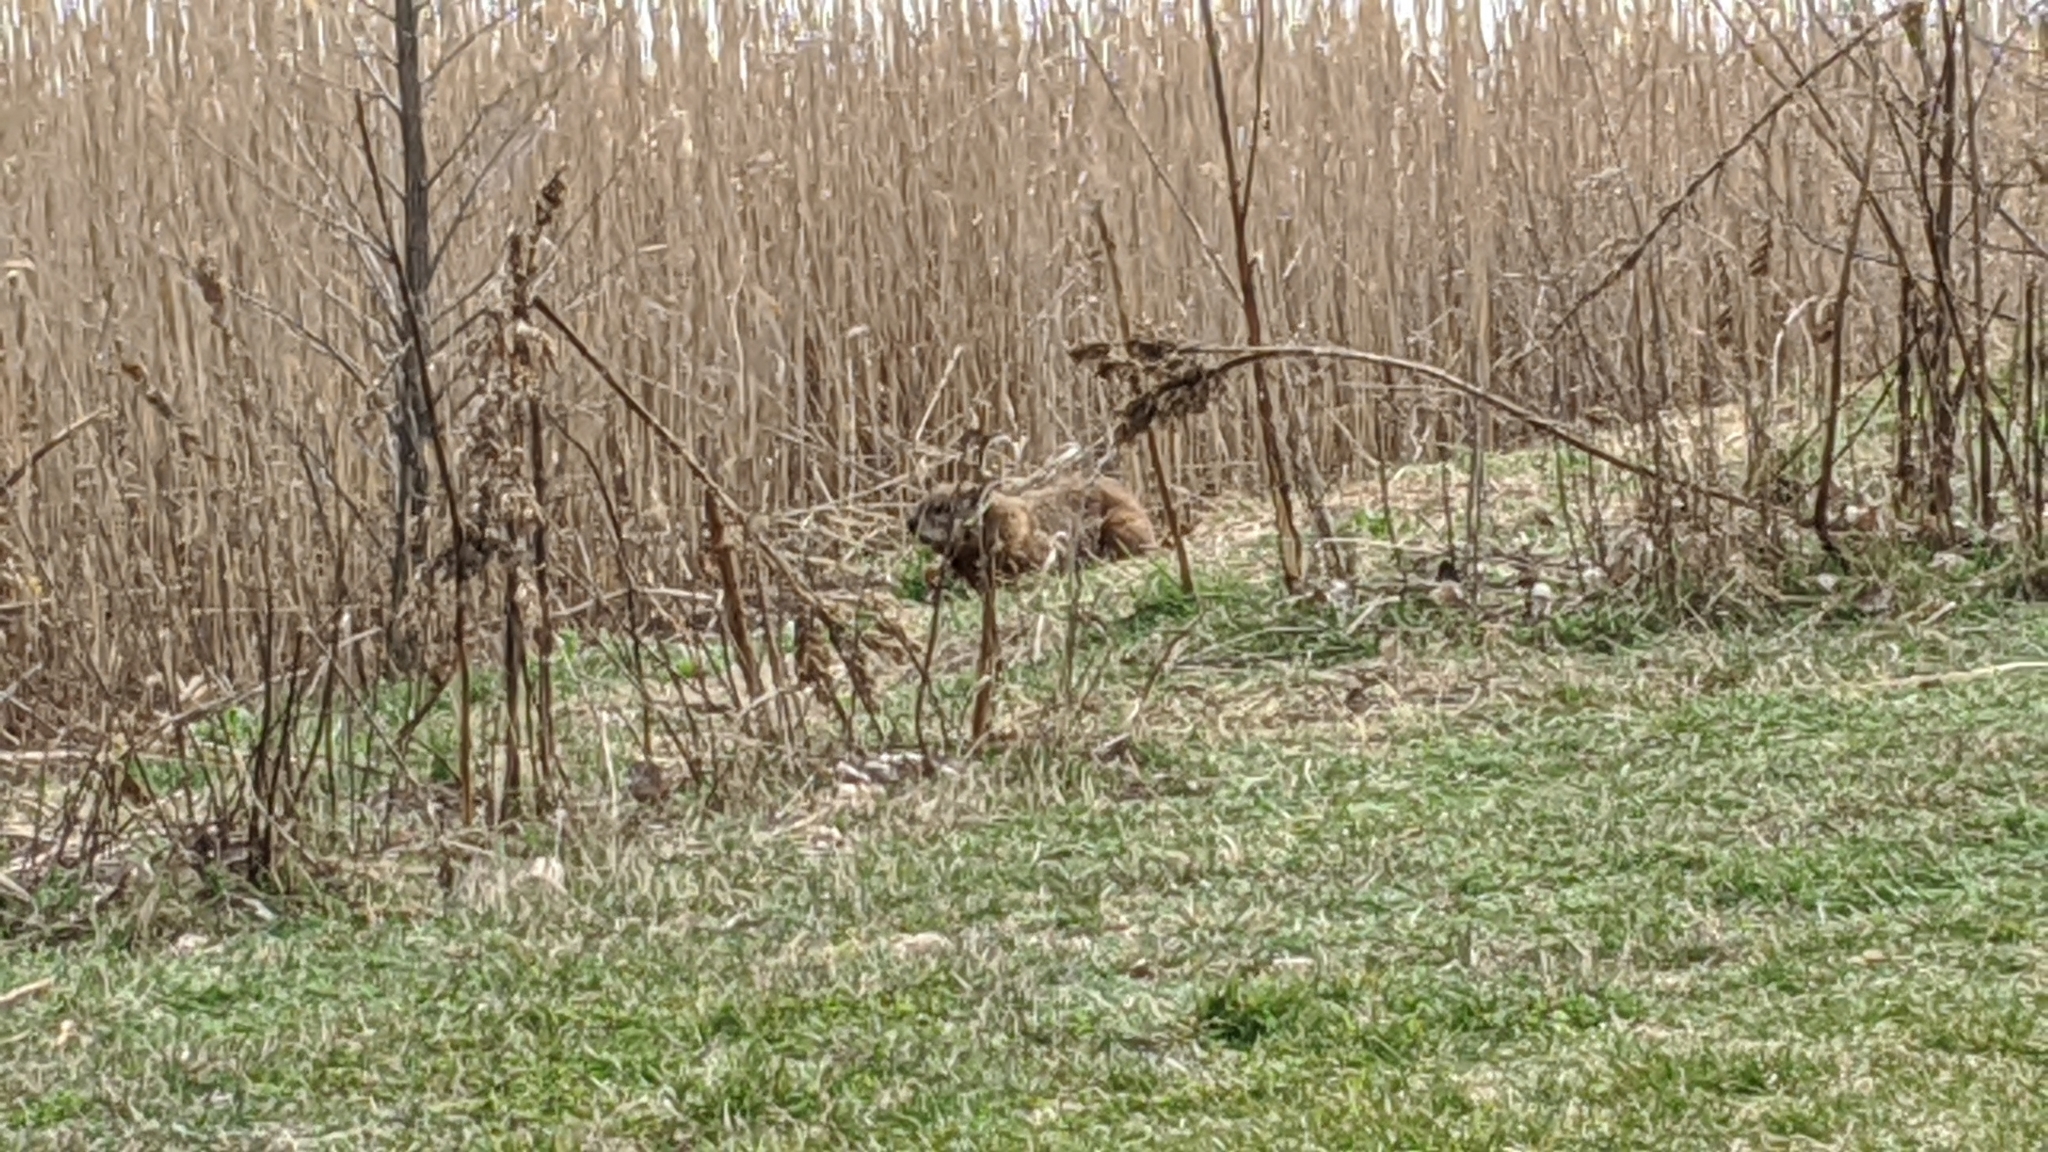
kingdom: Animalia
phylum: Chordata
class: Mammalia
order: Rodentia
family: Sciuridae
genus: Marmota
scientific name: Marmota monax
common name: Groundhog
